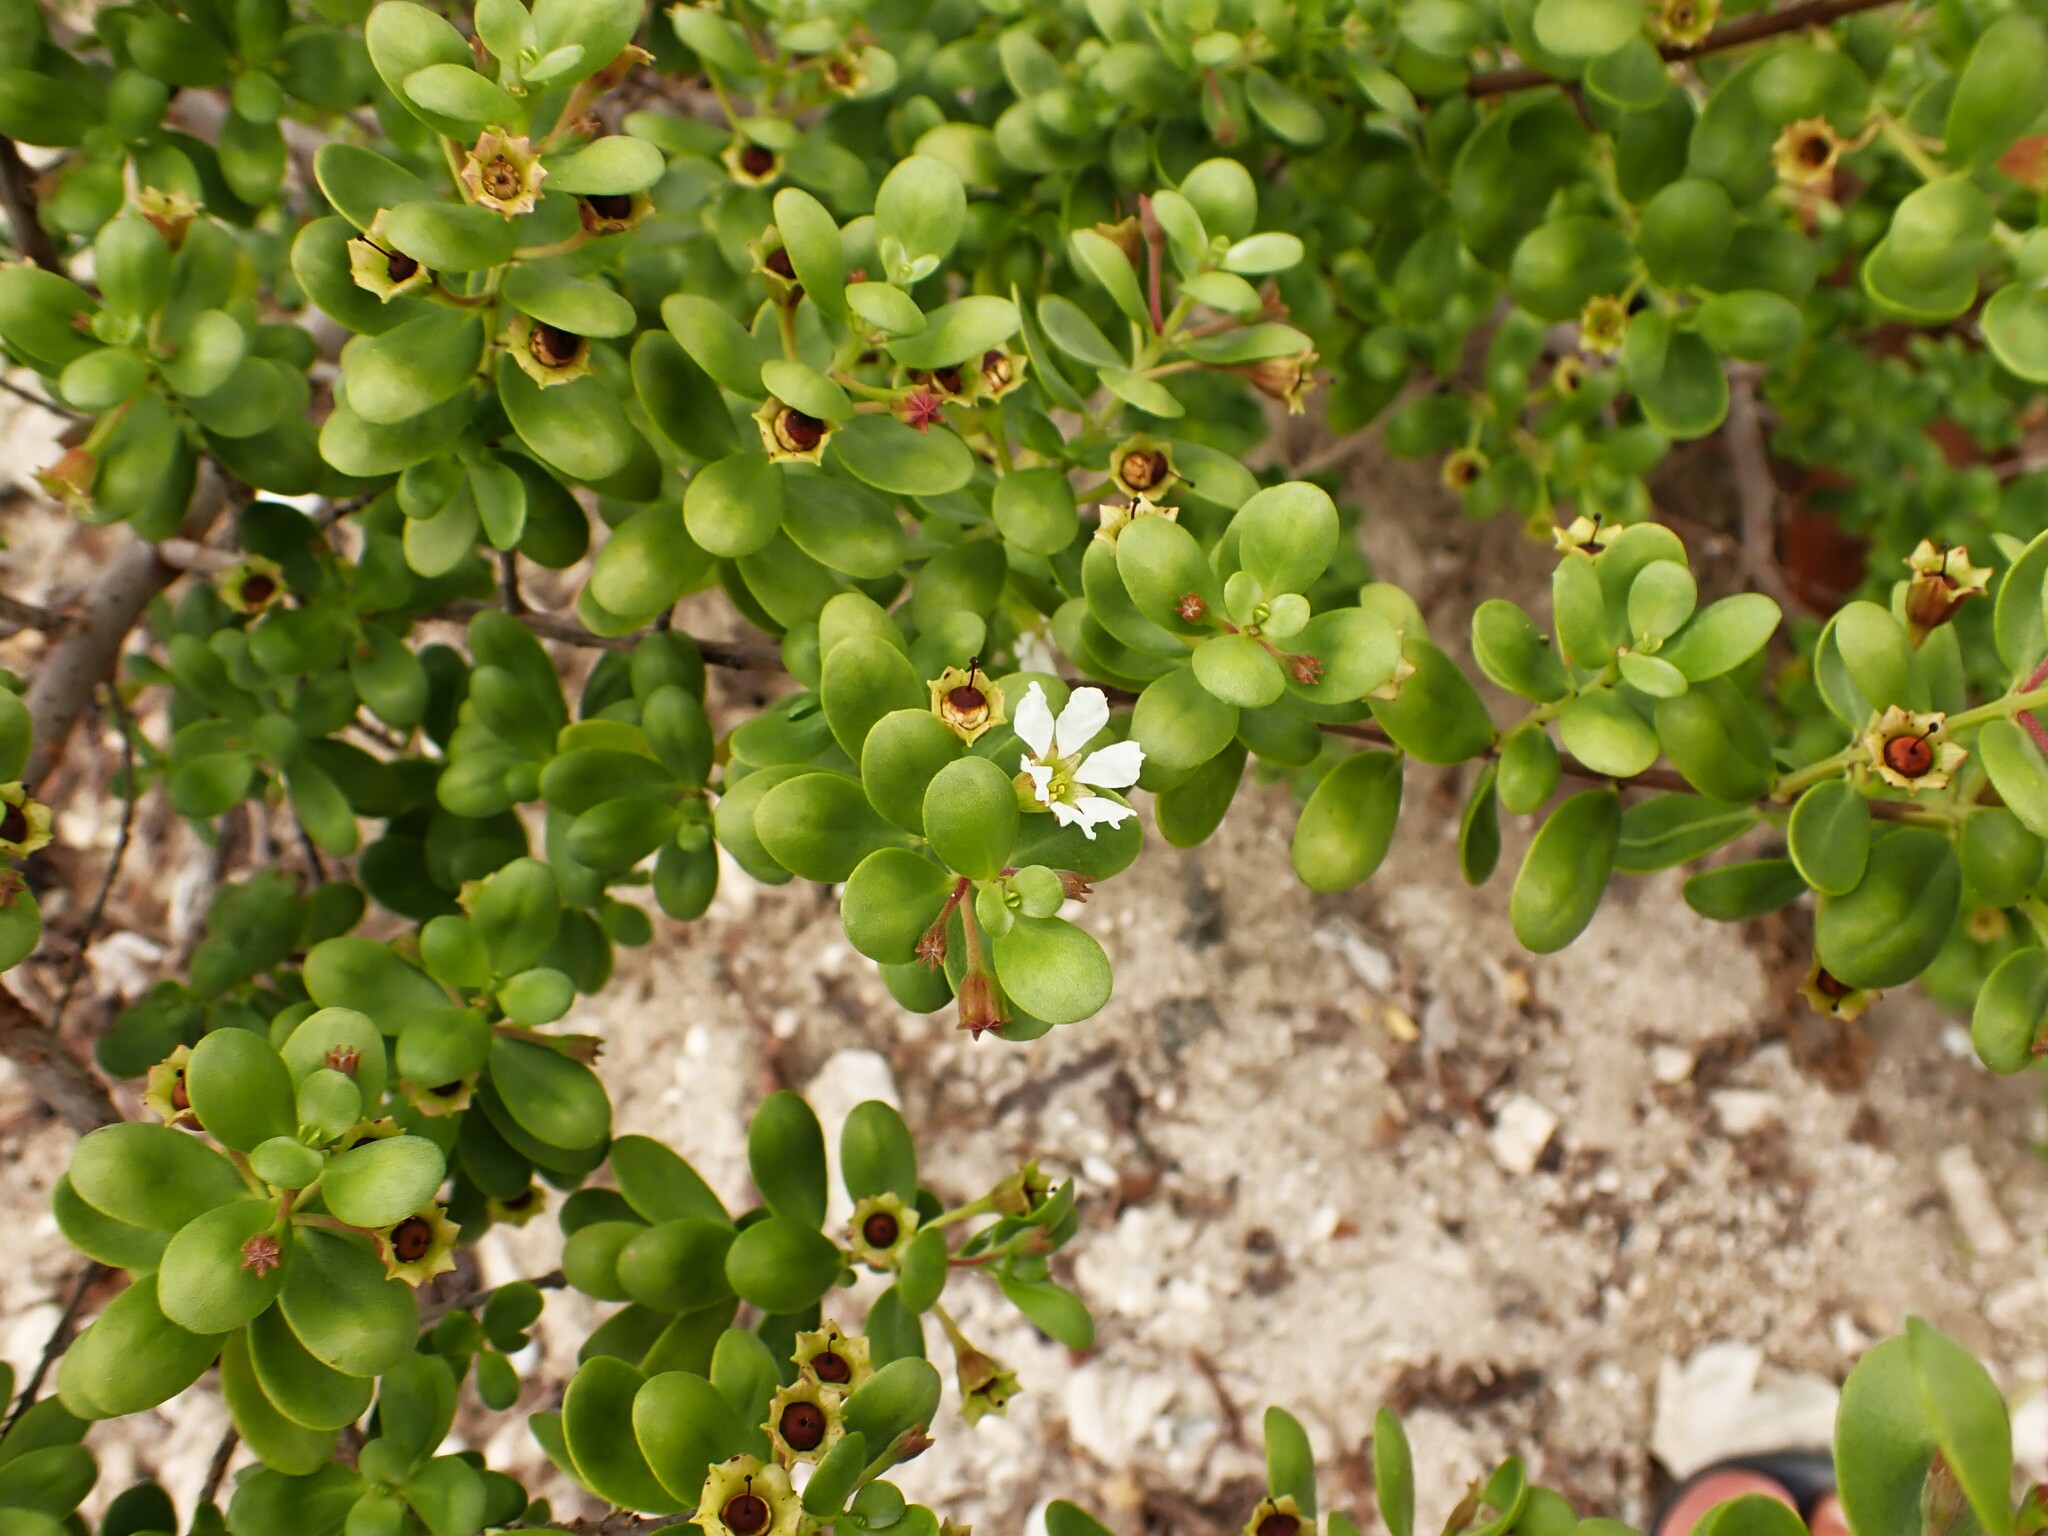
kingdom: Plantae
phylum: Tracheophyta
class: Magnoliopsida
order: Myrtales
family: Lythraceae
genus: Pemphis
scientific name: Pemphis acidula
